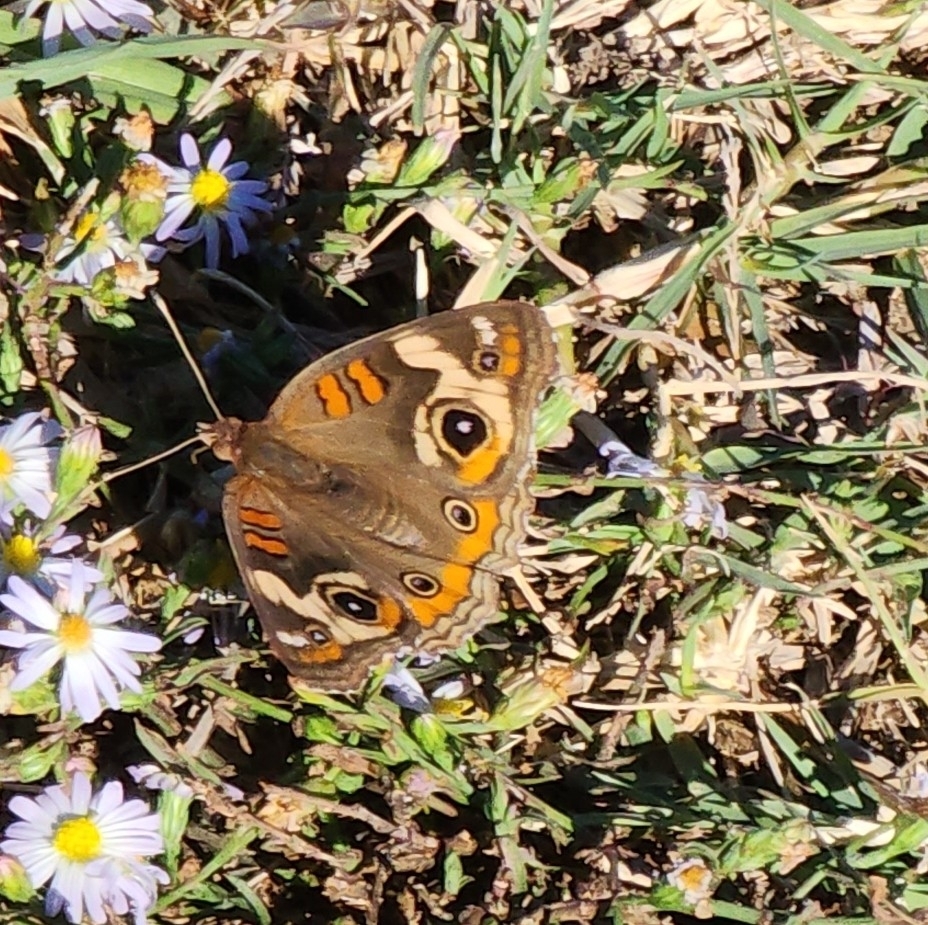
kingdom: Animalia
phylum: Arthropoda
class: Insecta
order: Lepidoptera
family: Nymphalidae
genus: Junonia
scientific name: Junonia coenia
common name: Common buckeye
